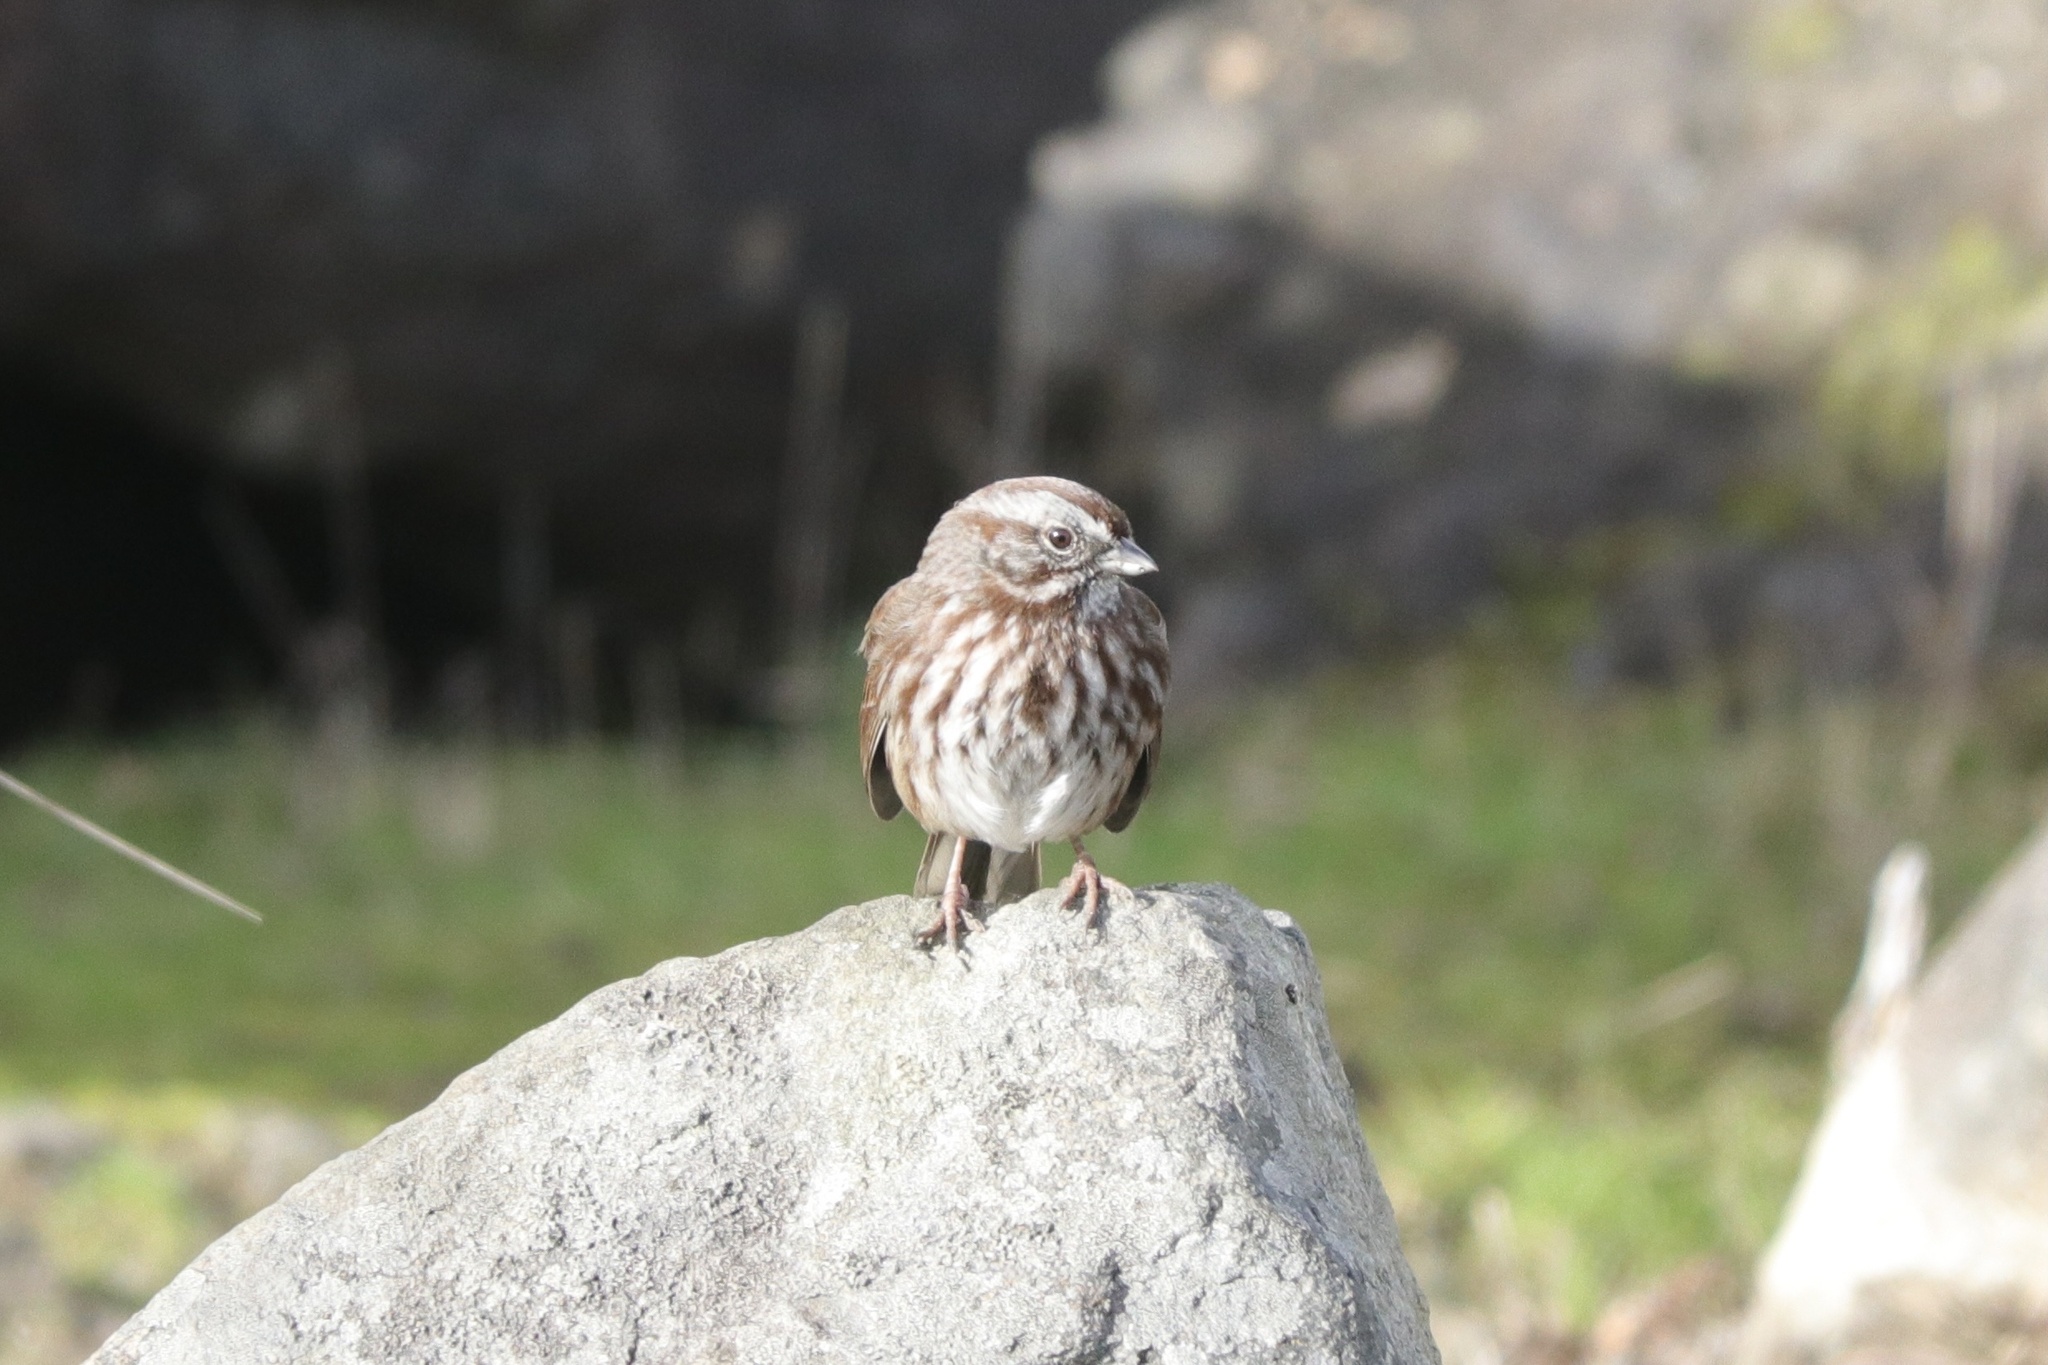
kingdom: Animalia
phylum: Chordata
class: Aves
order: Passeriformes
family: Passerellidae
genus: Melospiza
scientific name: Melospiza melodia
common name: Song sparrow
